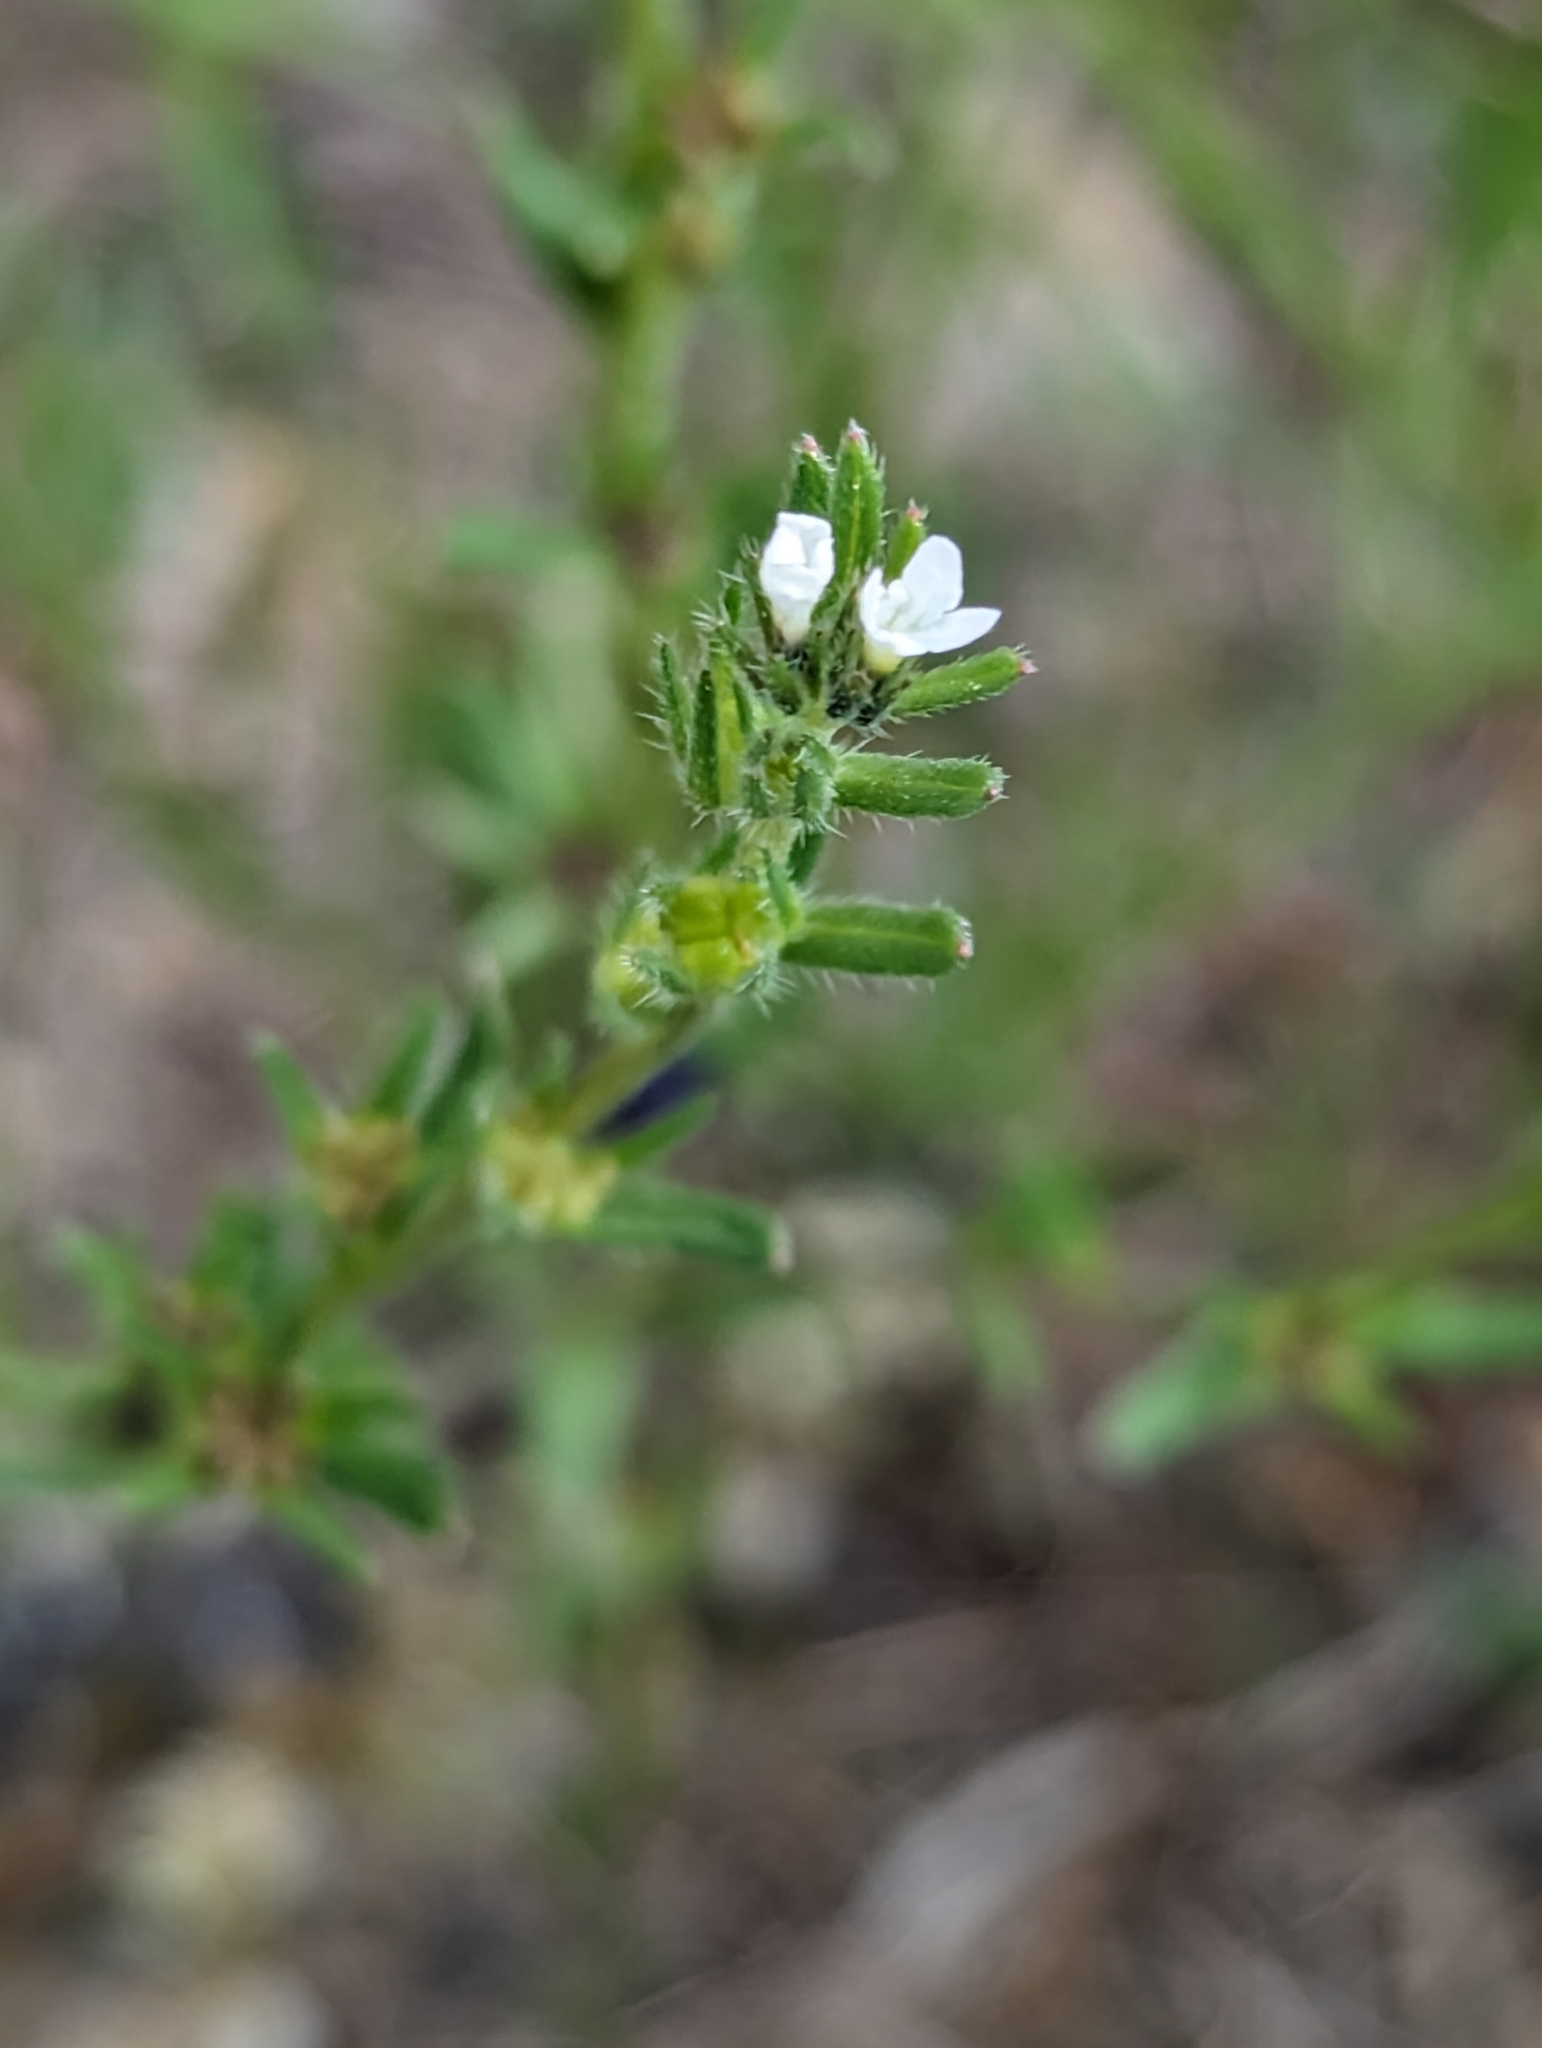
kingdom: Plantae
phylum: Tracheophyta
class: Magnoliopsida
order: Boraginales
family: Boraginaceae
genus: Buglossoides
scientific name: Buglossoides arvensis
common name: Corn gromwell
